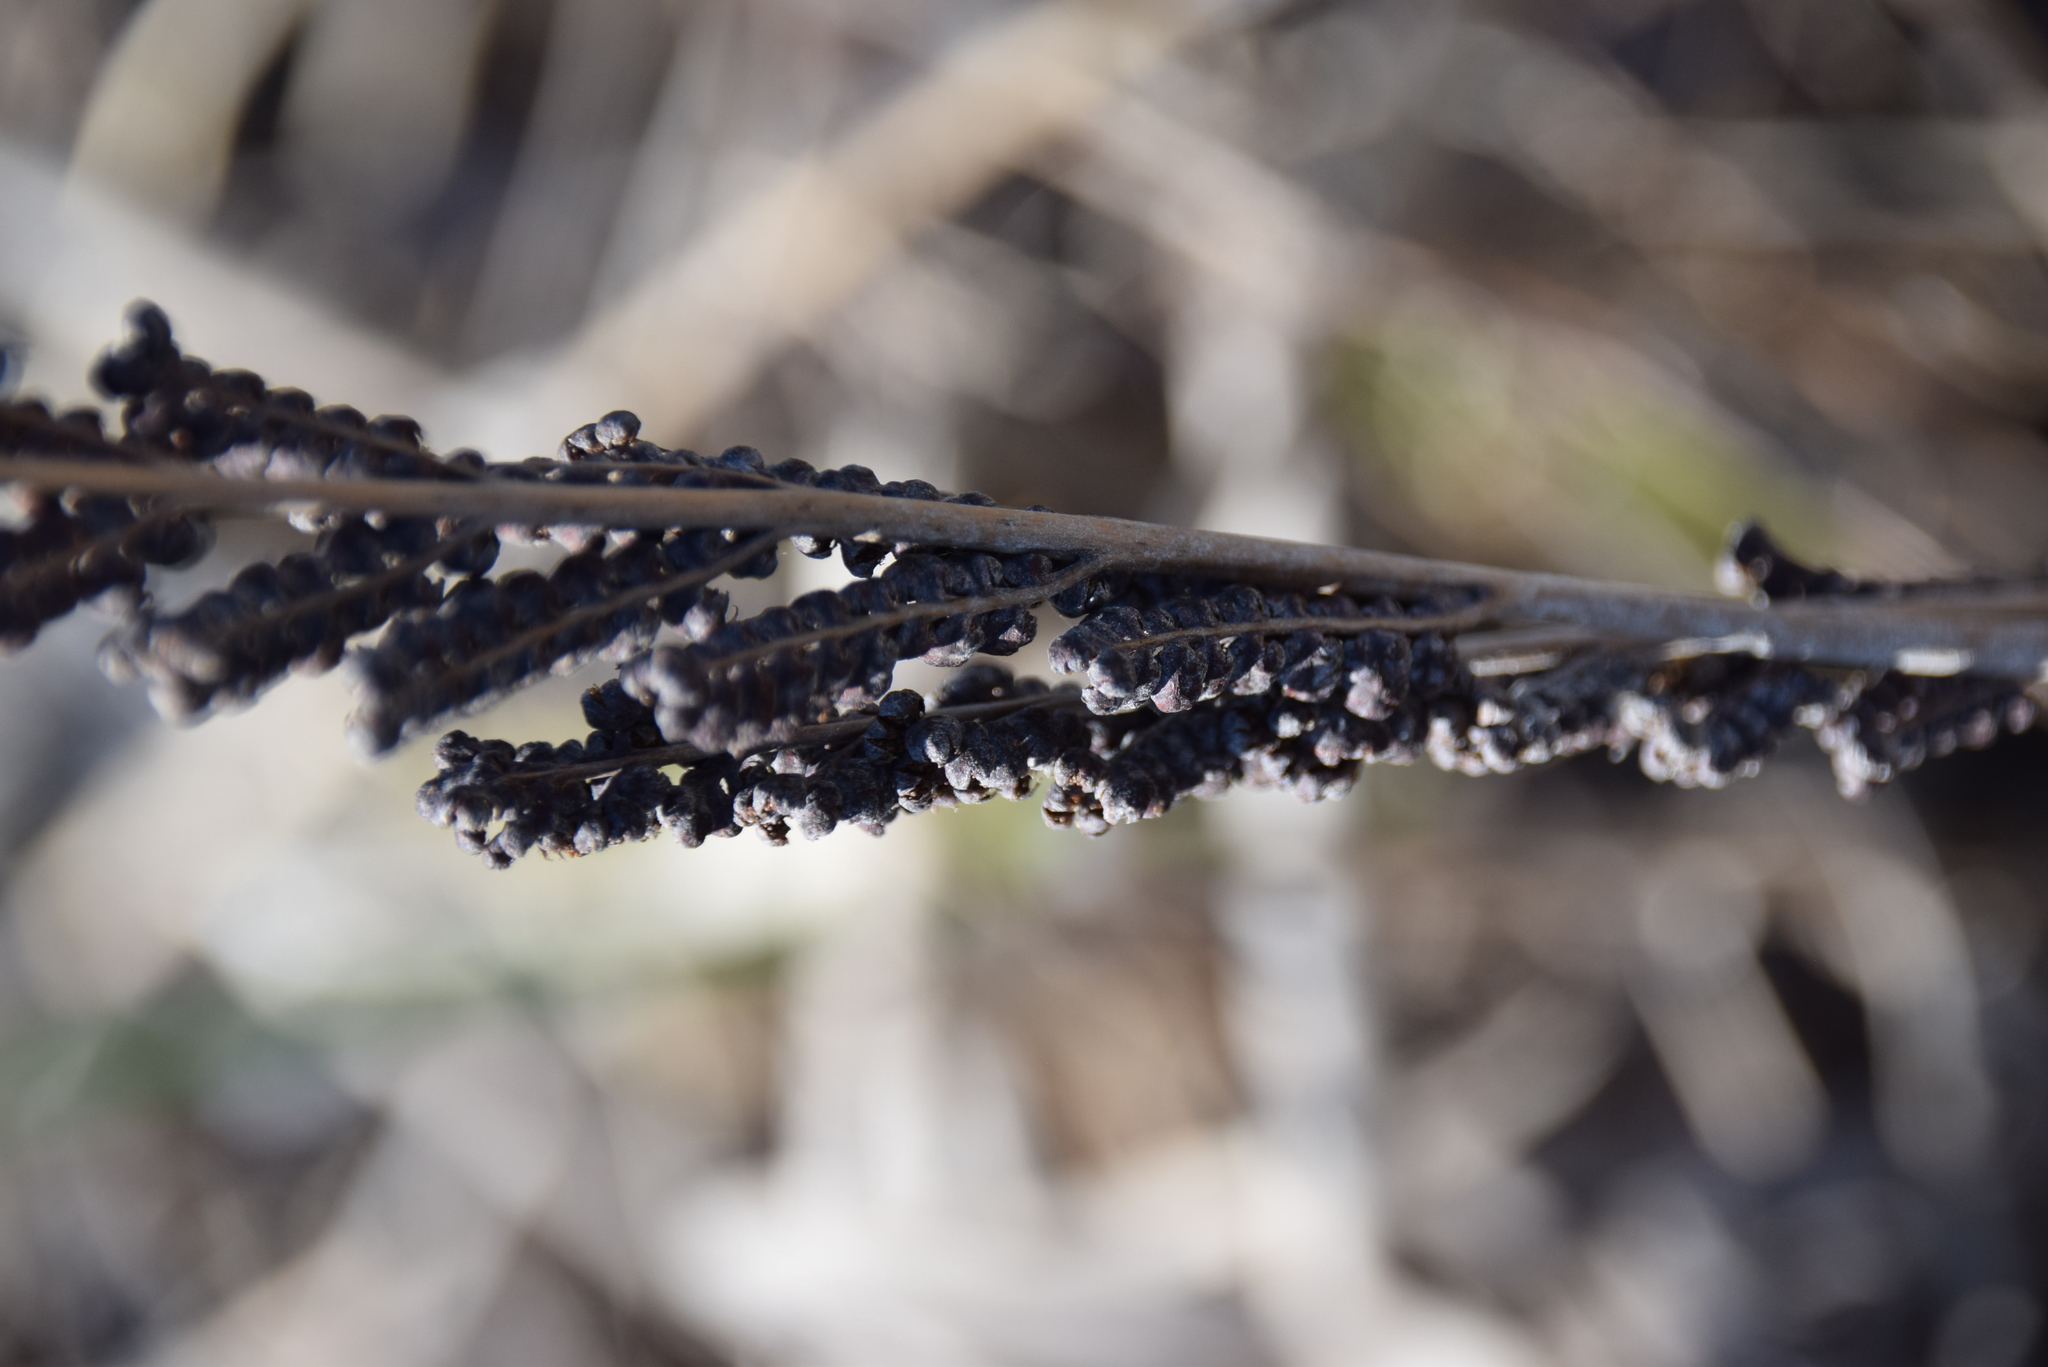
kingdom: Plantae
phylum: Tracheophyta
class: Polypodiopsida
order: Polypodiales
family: Onocleaceae
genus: Onoclea
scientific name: Onoclea sensibilis
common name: Sensitive fern
